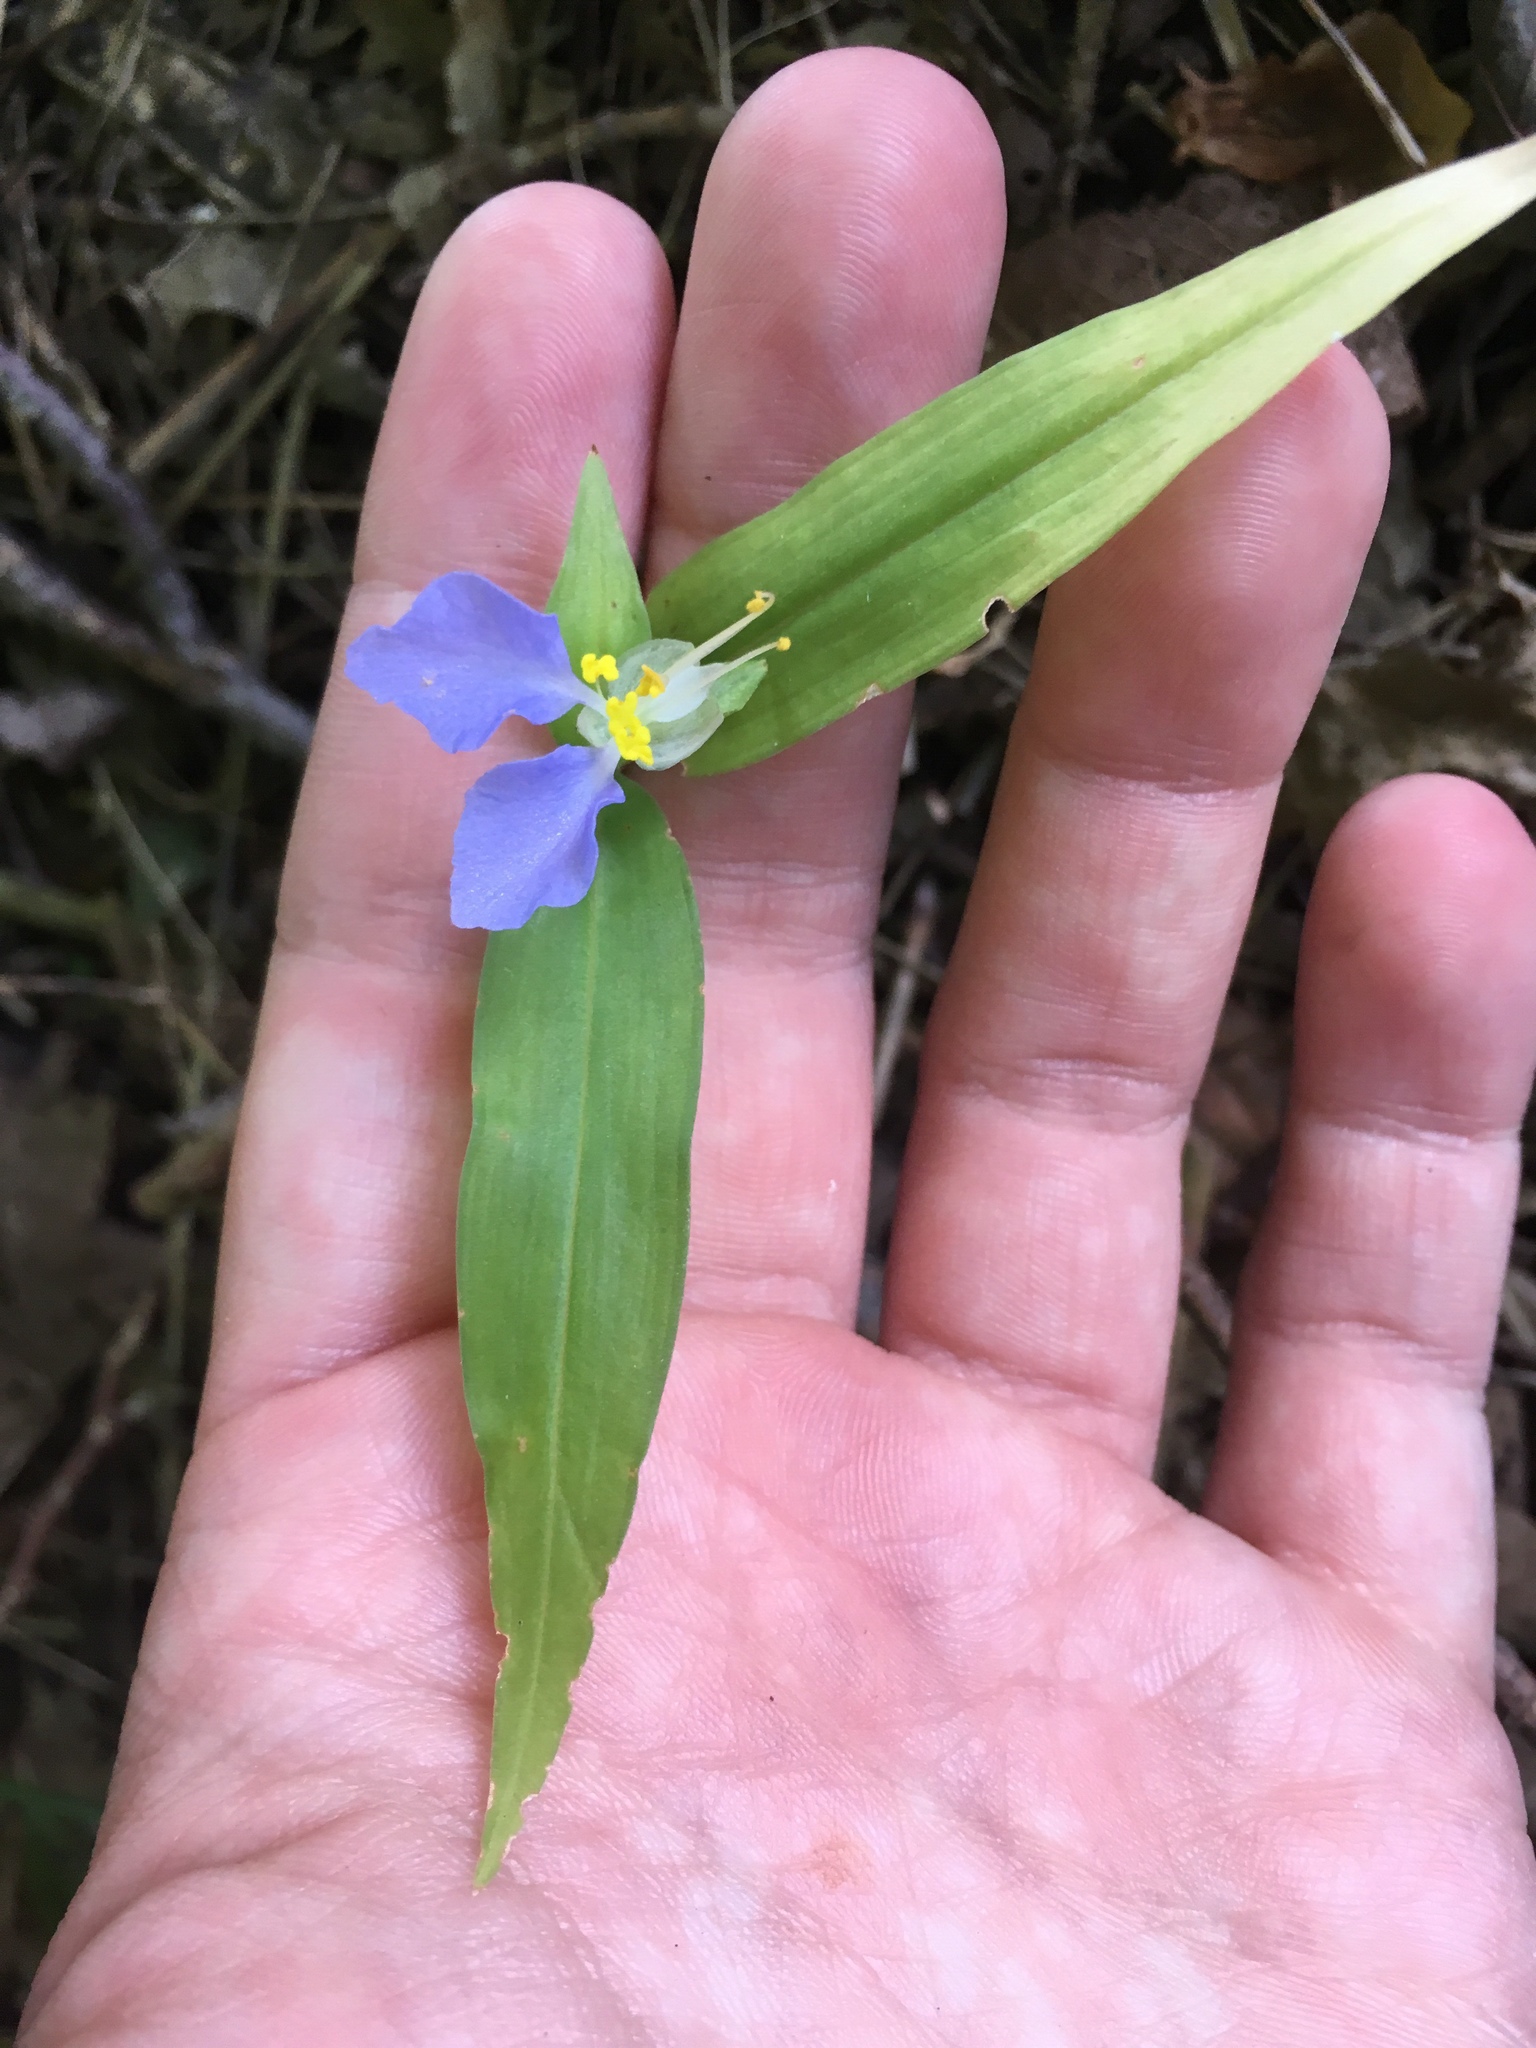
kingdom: Plantae
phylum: Tracheophyta
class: Liliopsida
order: Commelinales
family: Commelinaceae
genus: Commelina
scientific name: Commelina communis
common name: Asiatic dayflower
